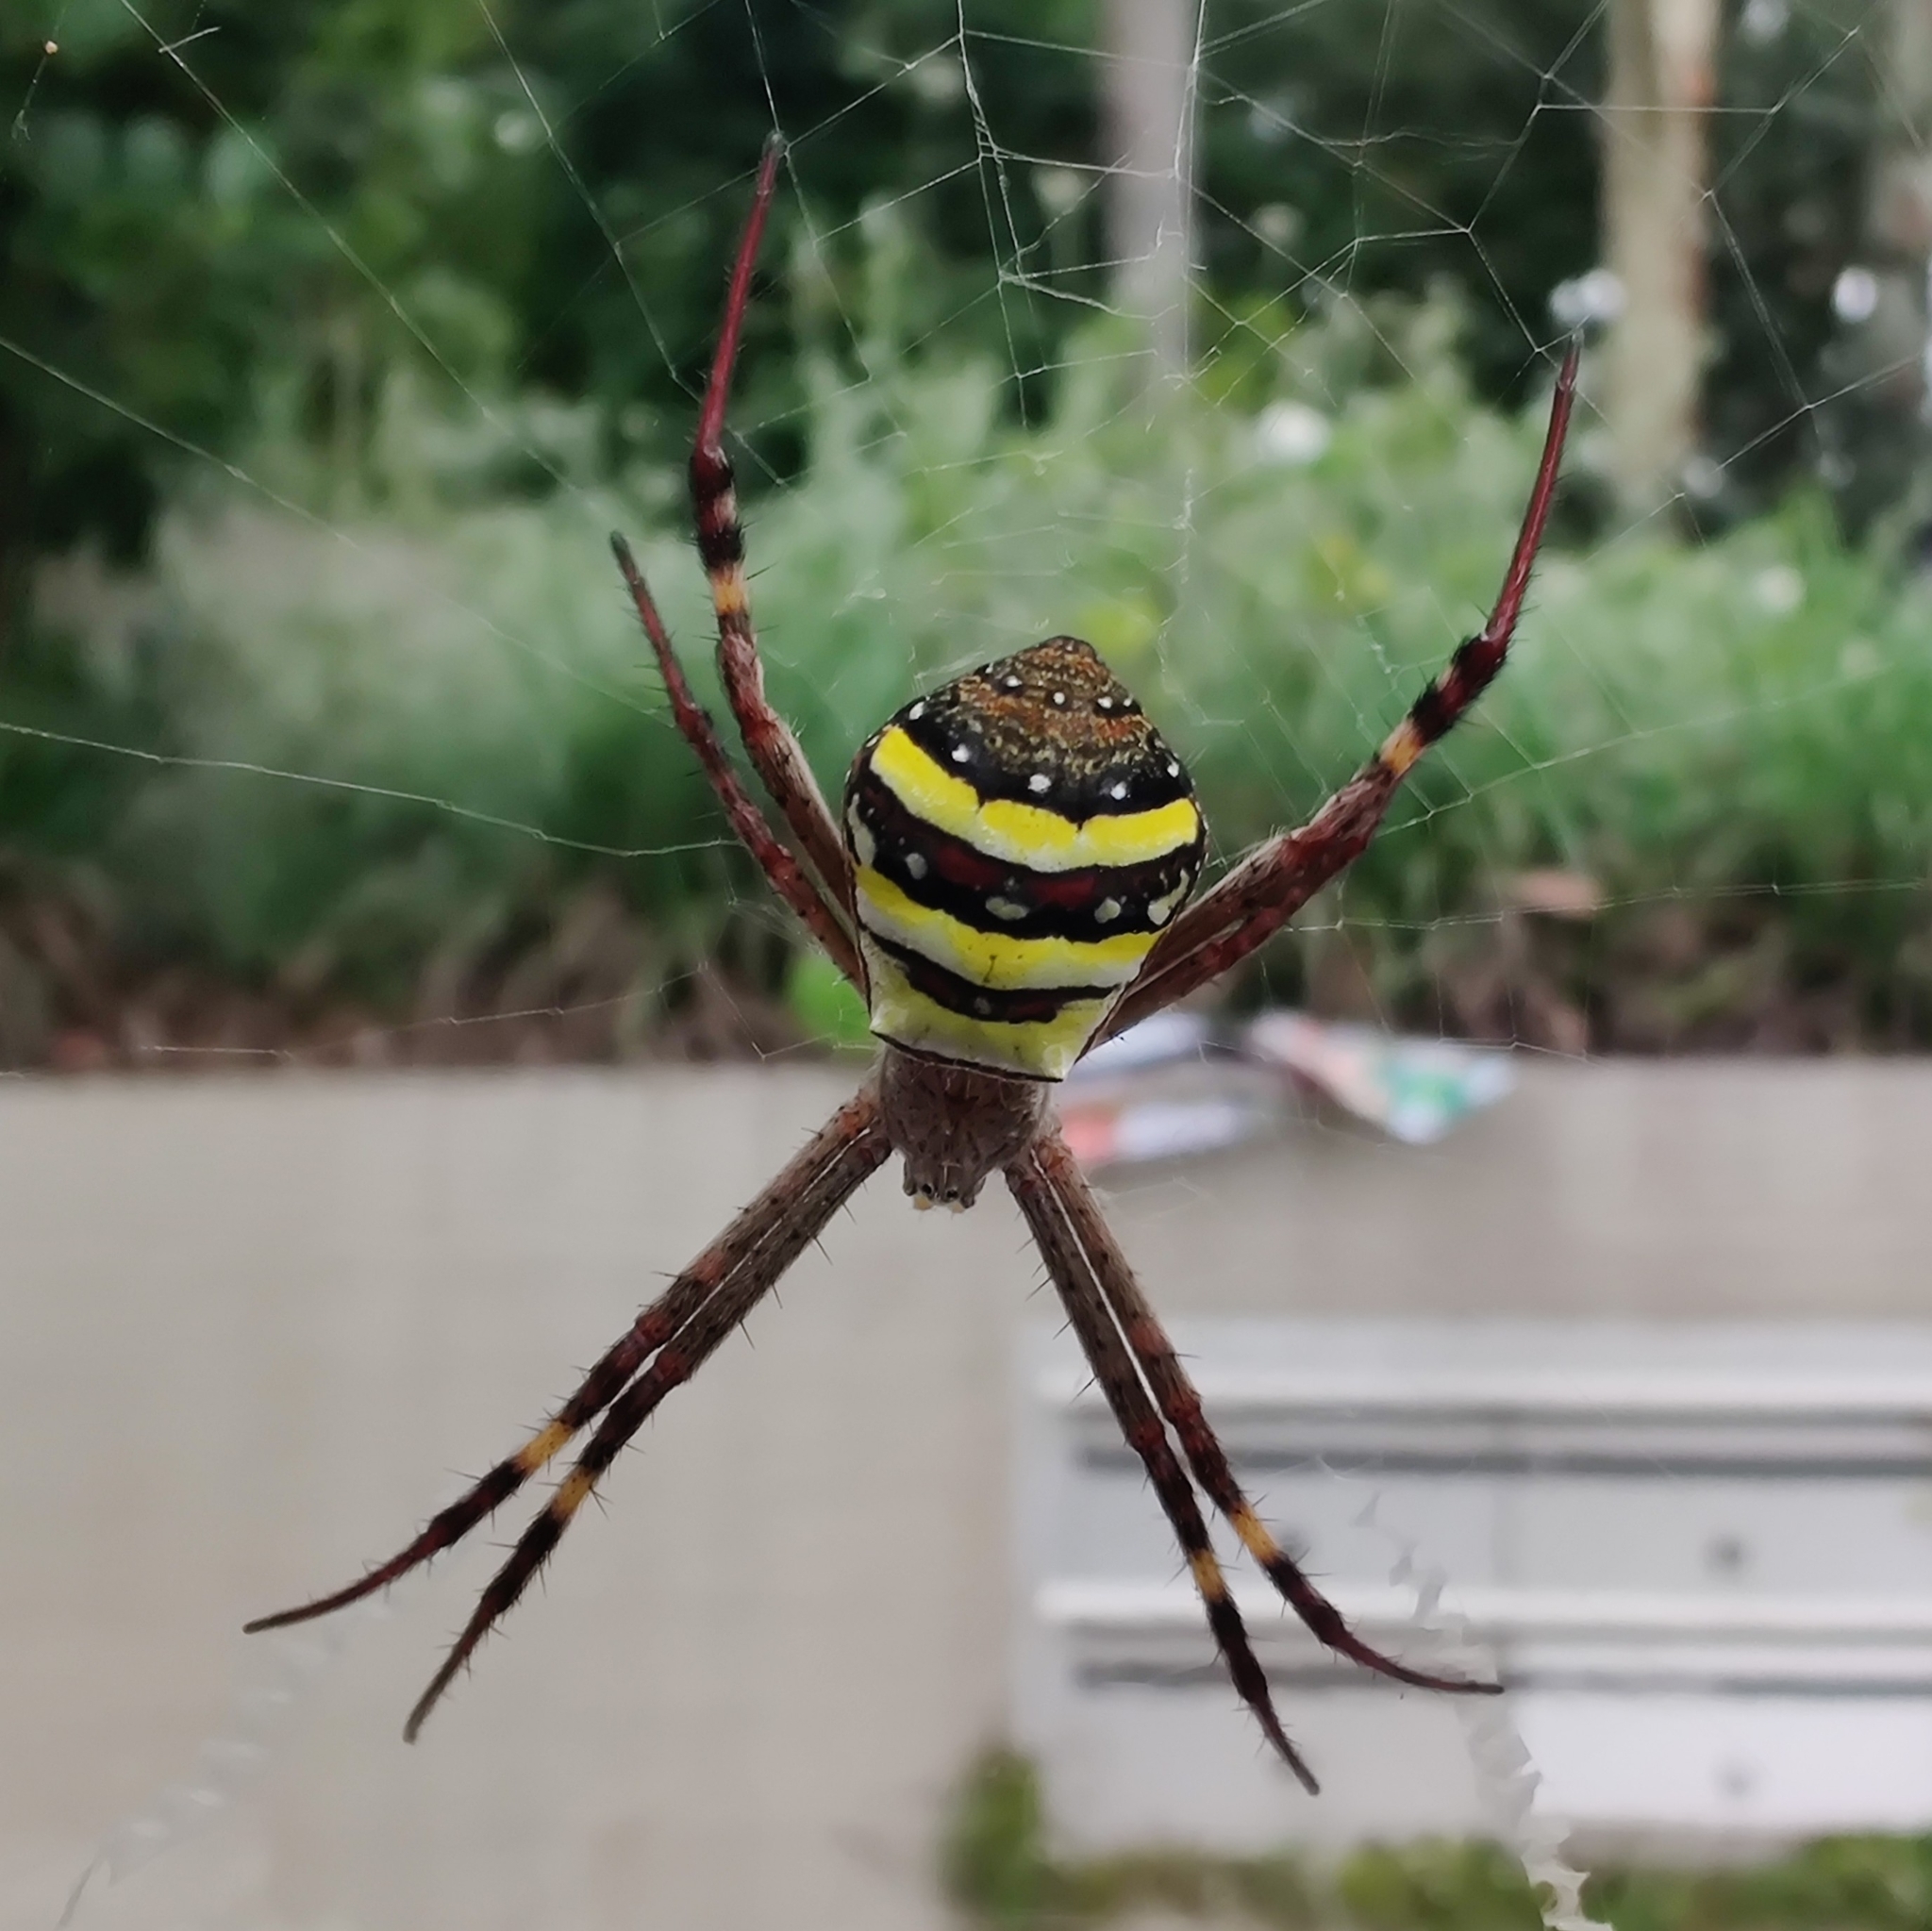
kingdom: Animalia
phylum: Arthropoda
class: Arachnida
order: Araneae
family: Araneidae
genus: Argiope
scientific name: Argiope keyserlingi
